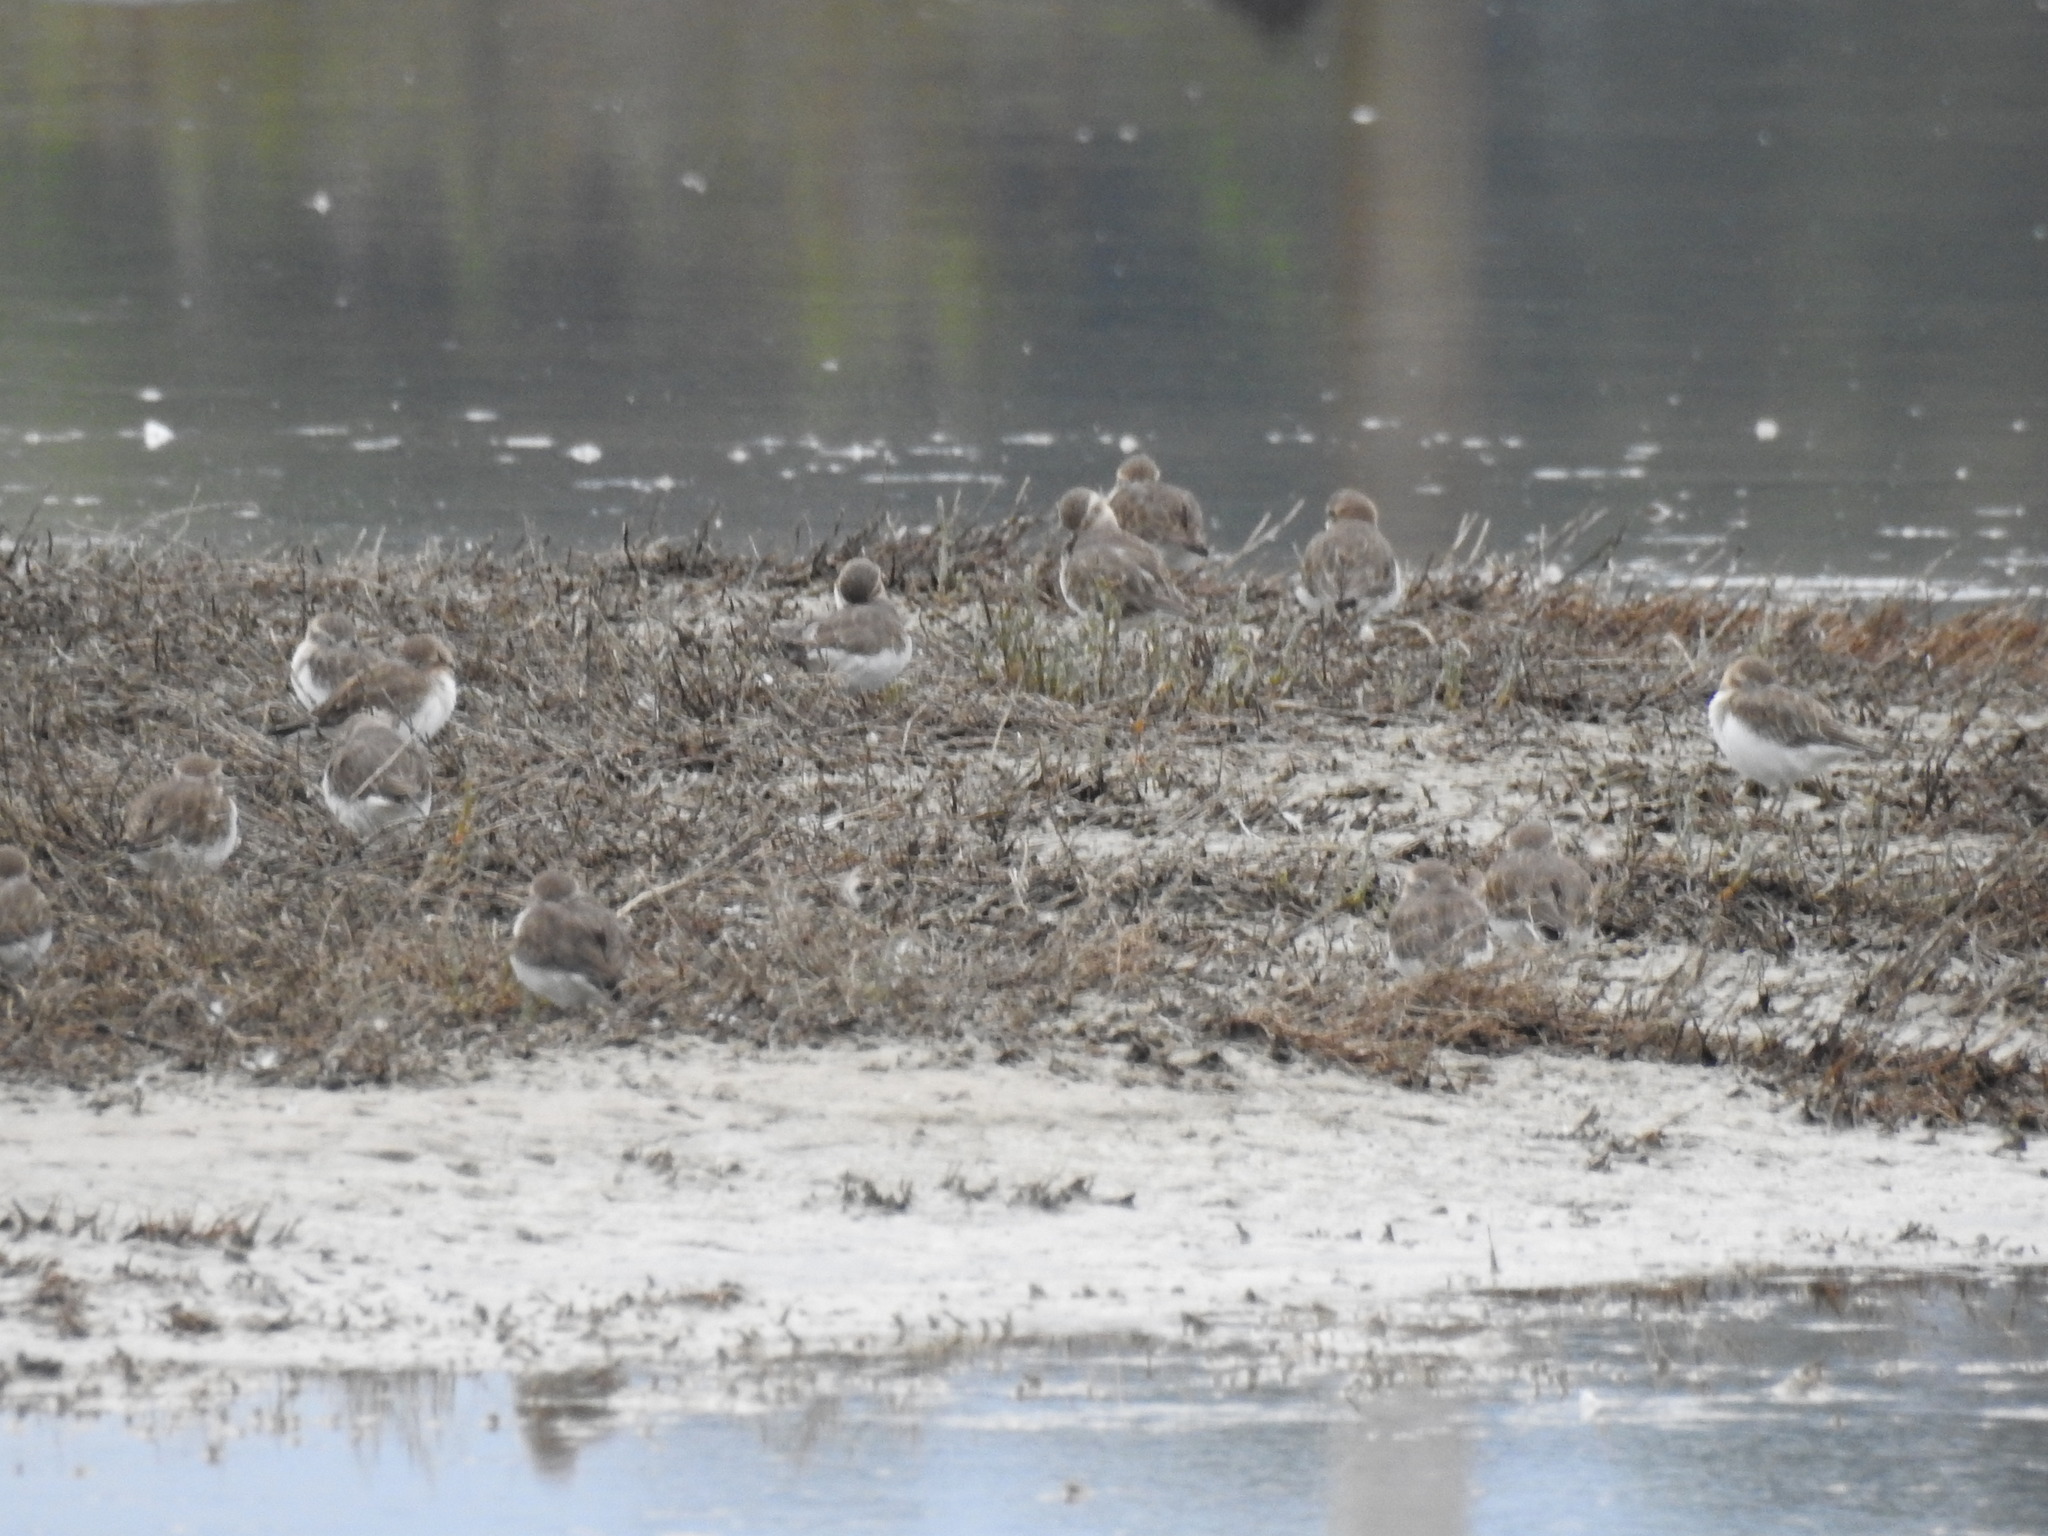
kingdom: Animalia
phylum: Chordata
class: Aves
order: Charadriiformes
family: Charadriidae
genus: Anarhynchus
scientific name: Anarhynchus
